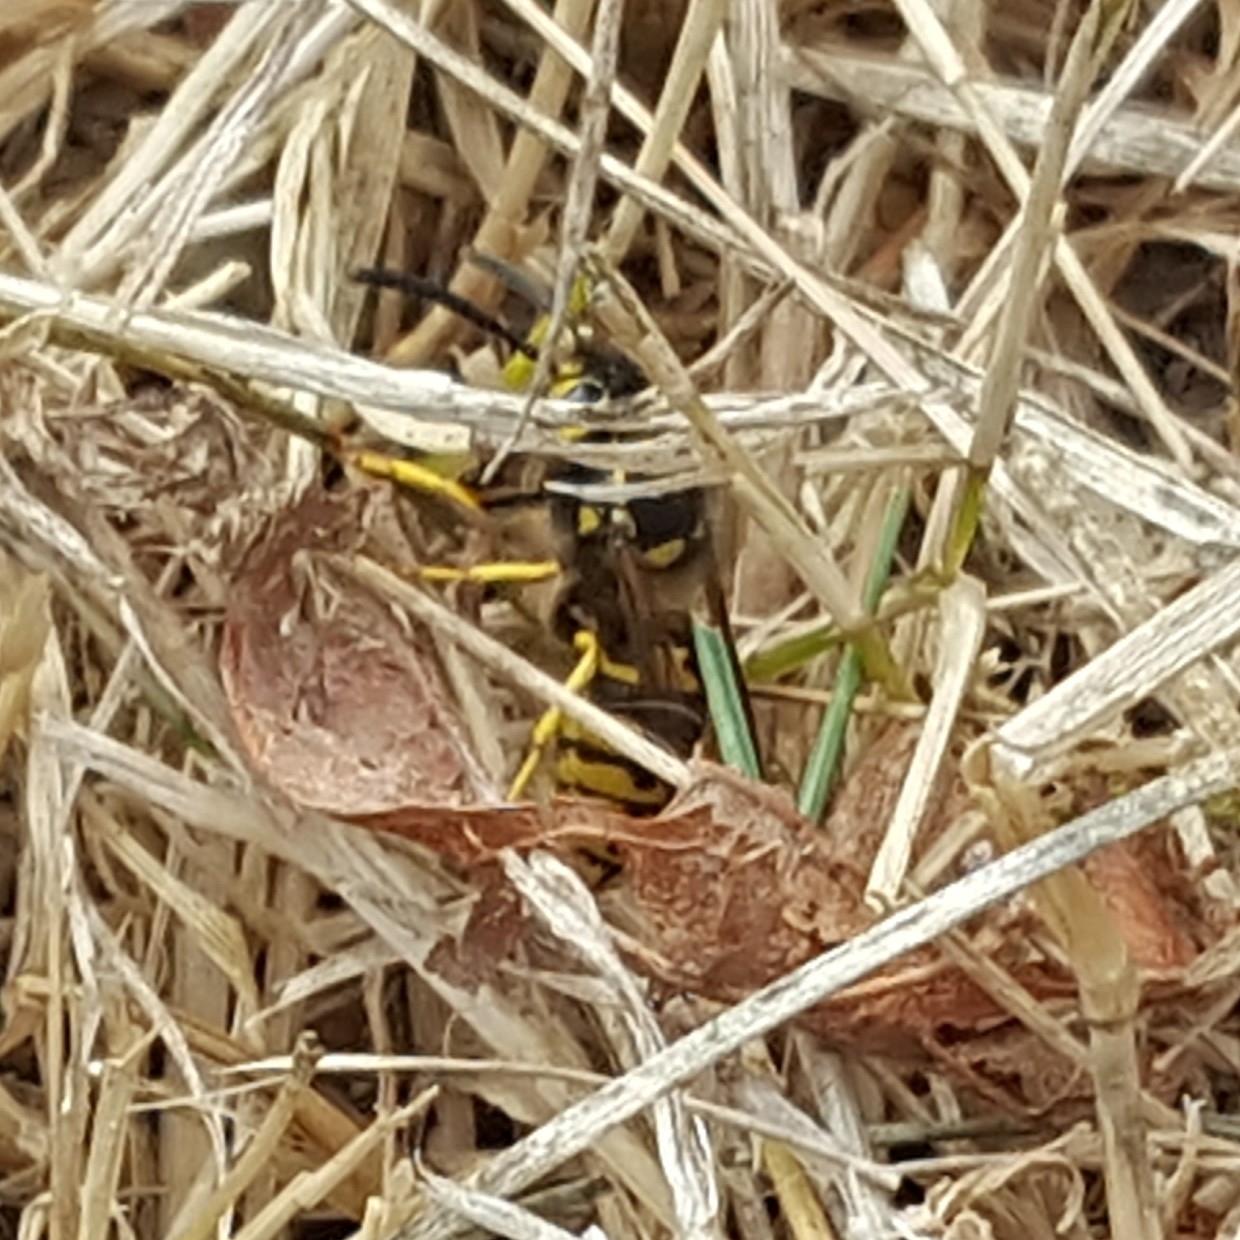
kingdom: Animalia
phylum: Arthropoda
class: Insecta
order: Hymenoptera
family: Vespidae
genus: Vespula
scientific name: Vespula pensylvanica
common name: Western yellowjacket
